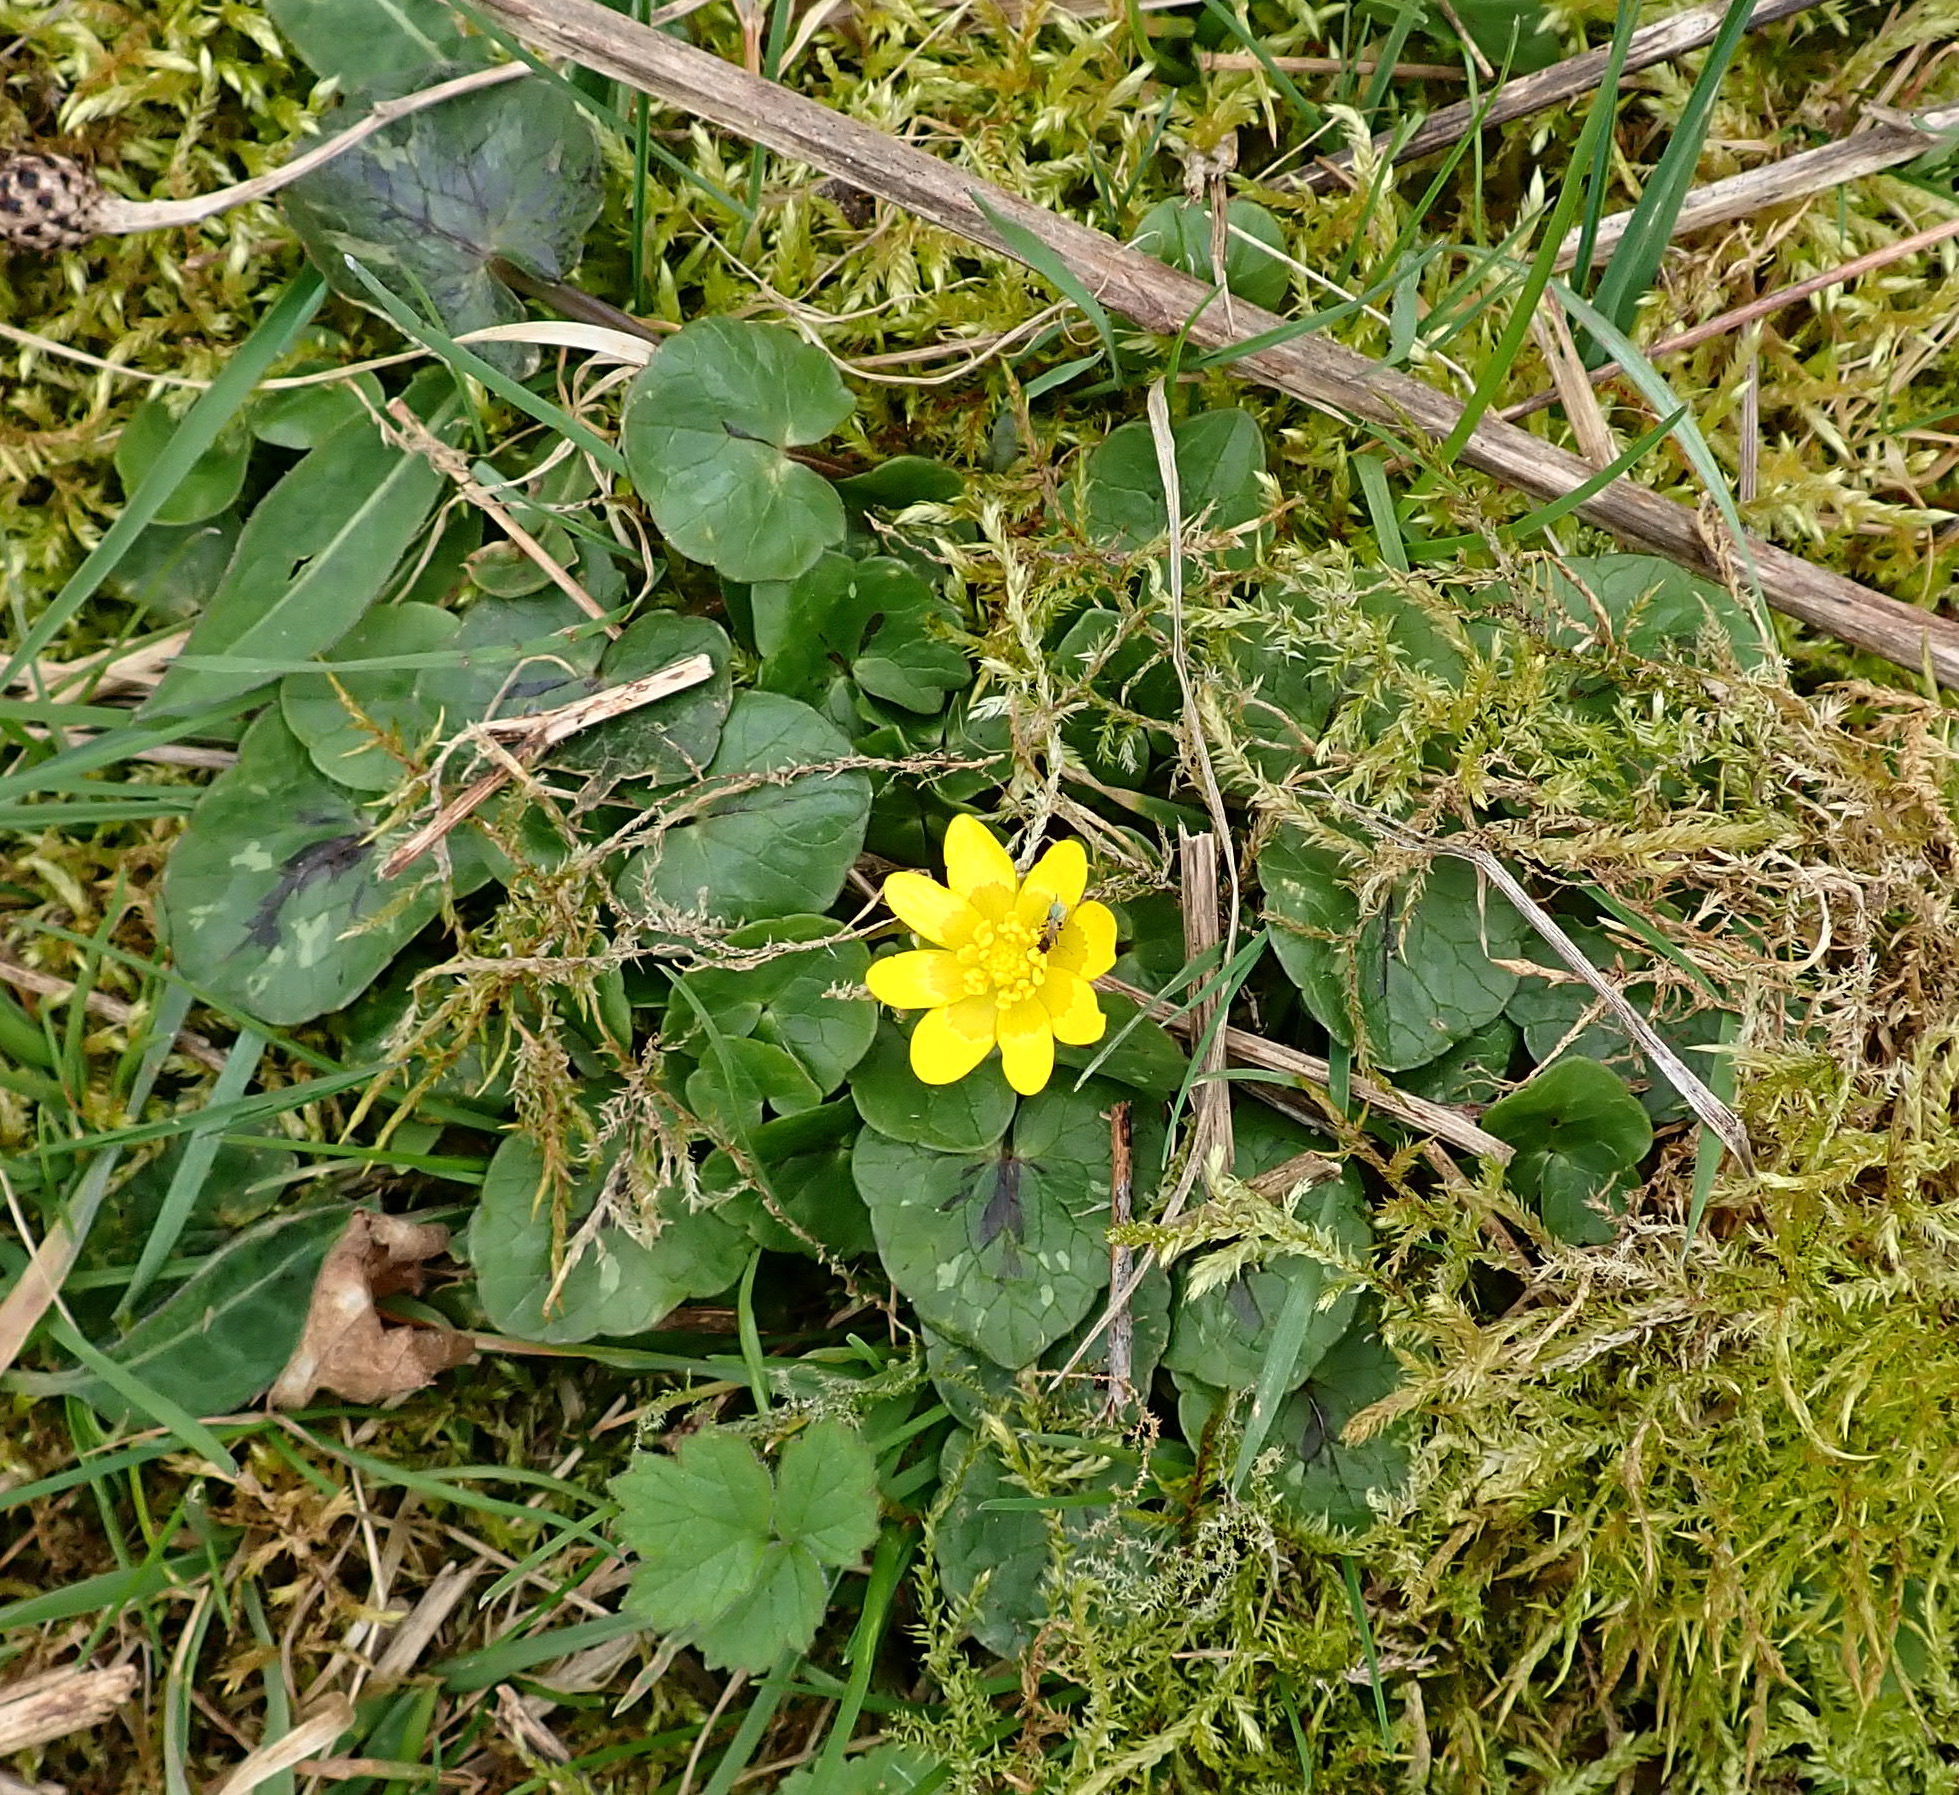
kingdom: Plantae
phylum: Tracheophyta
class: Magnoliopsida
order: Ranunculales
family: Ranunculaceae
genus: Ficaria
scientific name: Ficaria verna
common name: Lesser celandine
